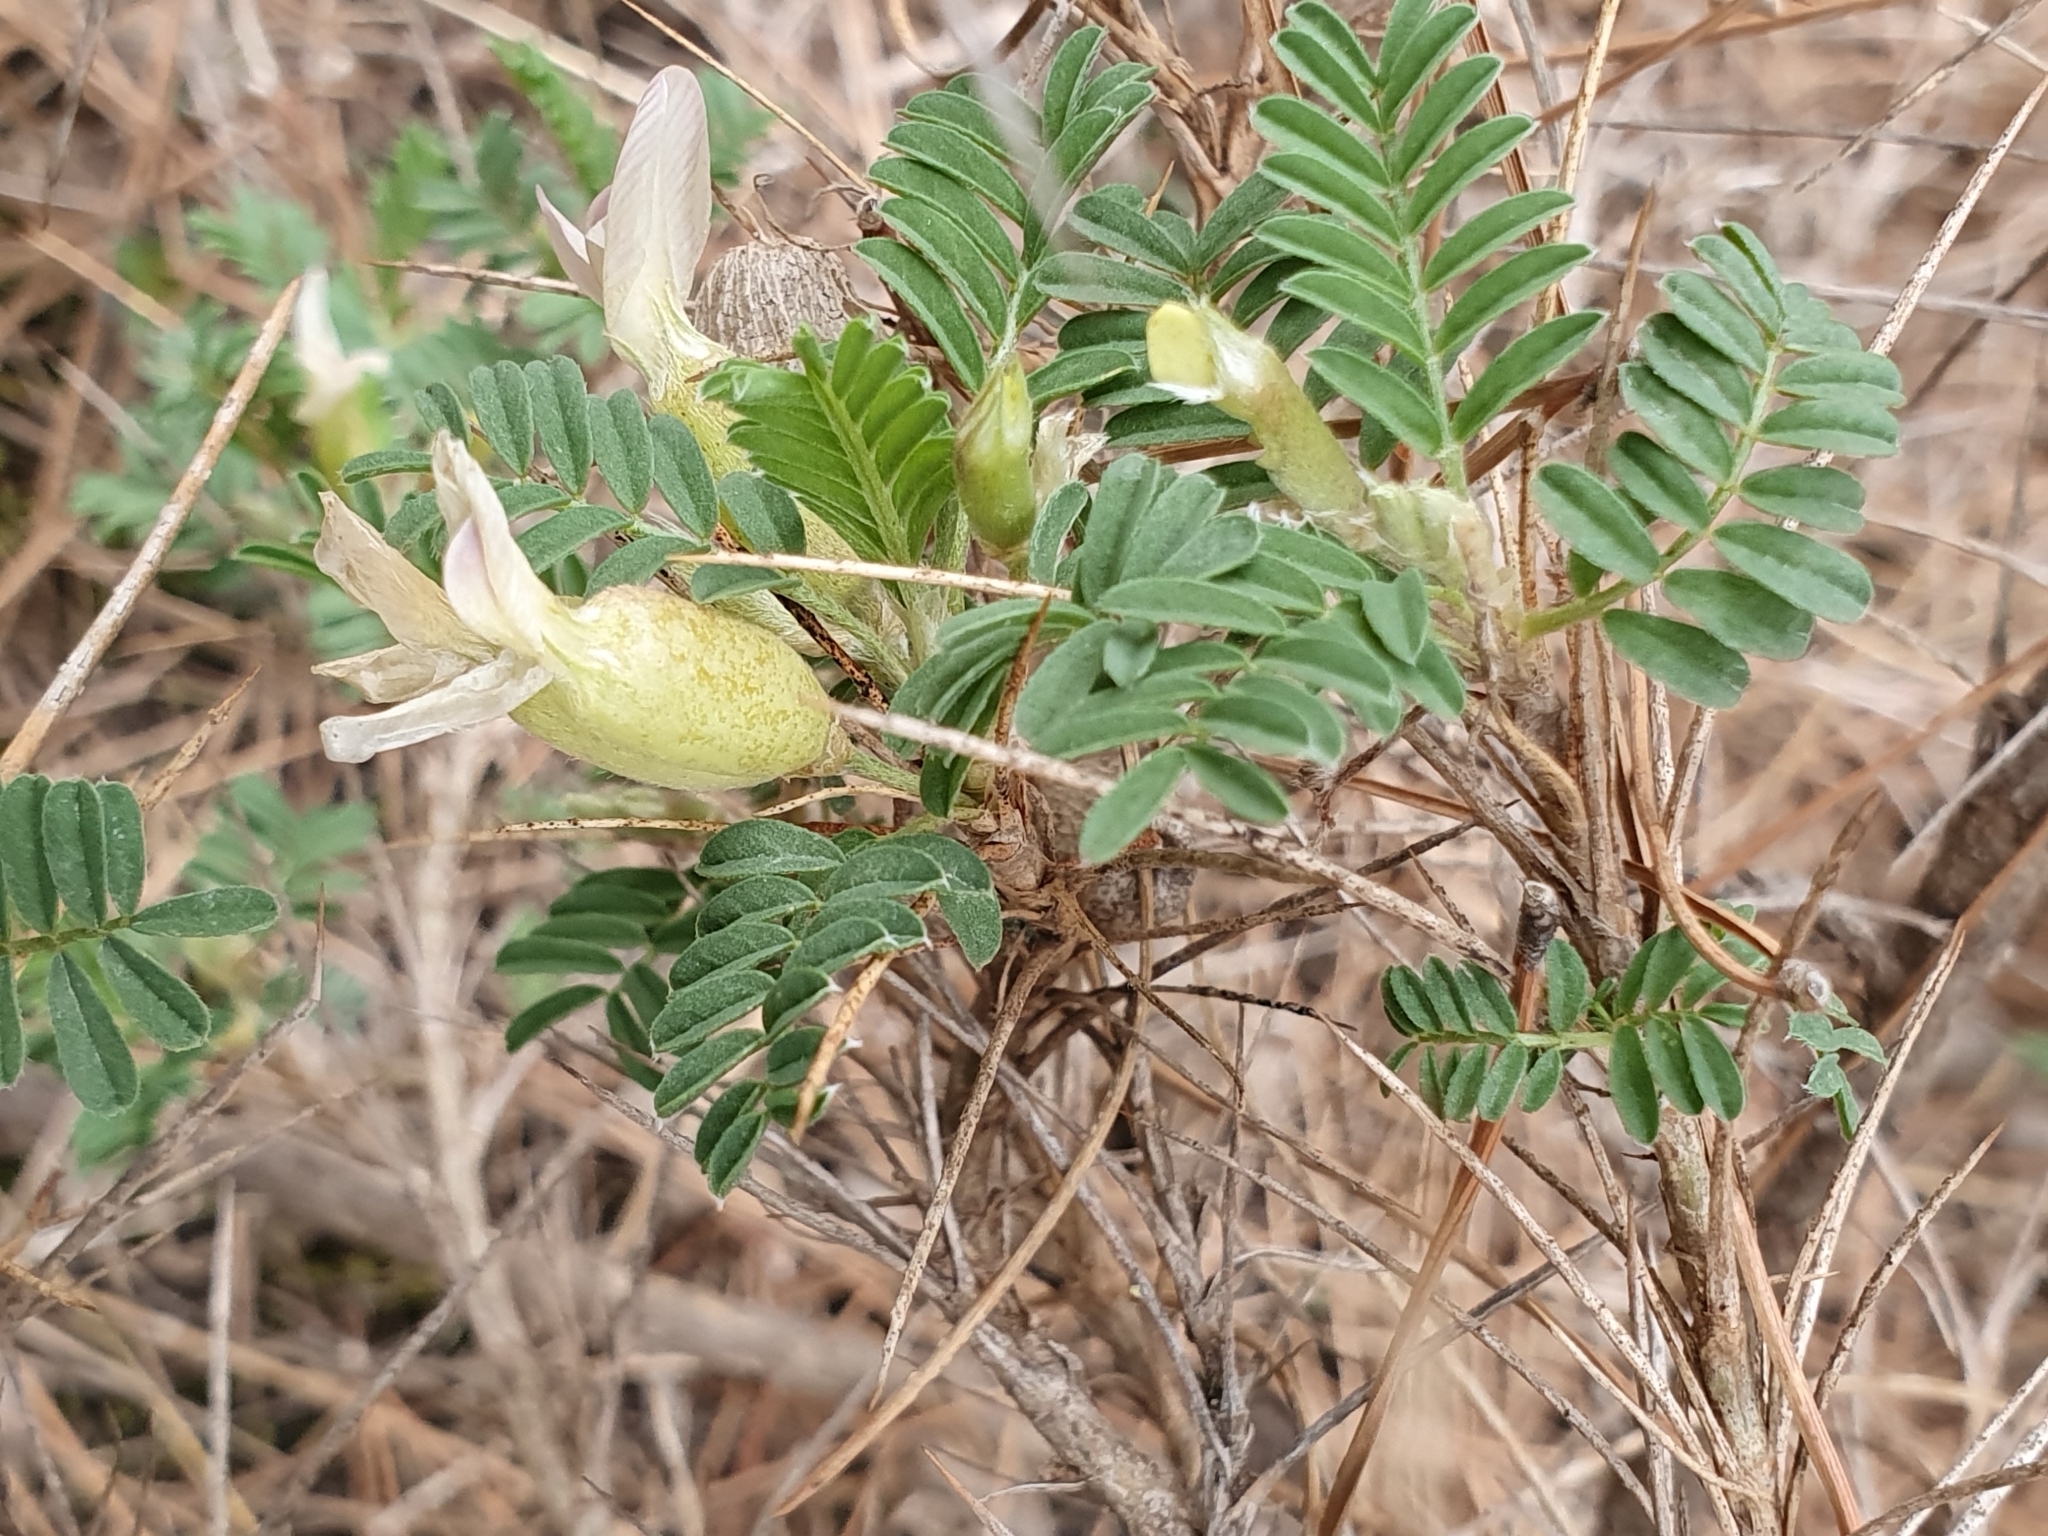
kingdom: Plantae
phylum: Tracheophyta
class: Magnoliopsida
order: Fabales
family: Fabaceae
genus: Astragalus
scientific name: Astragalus armatus
